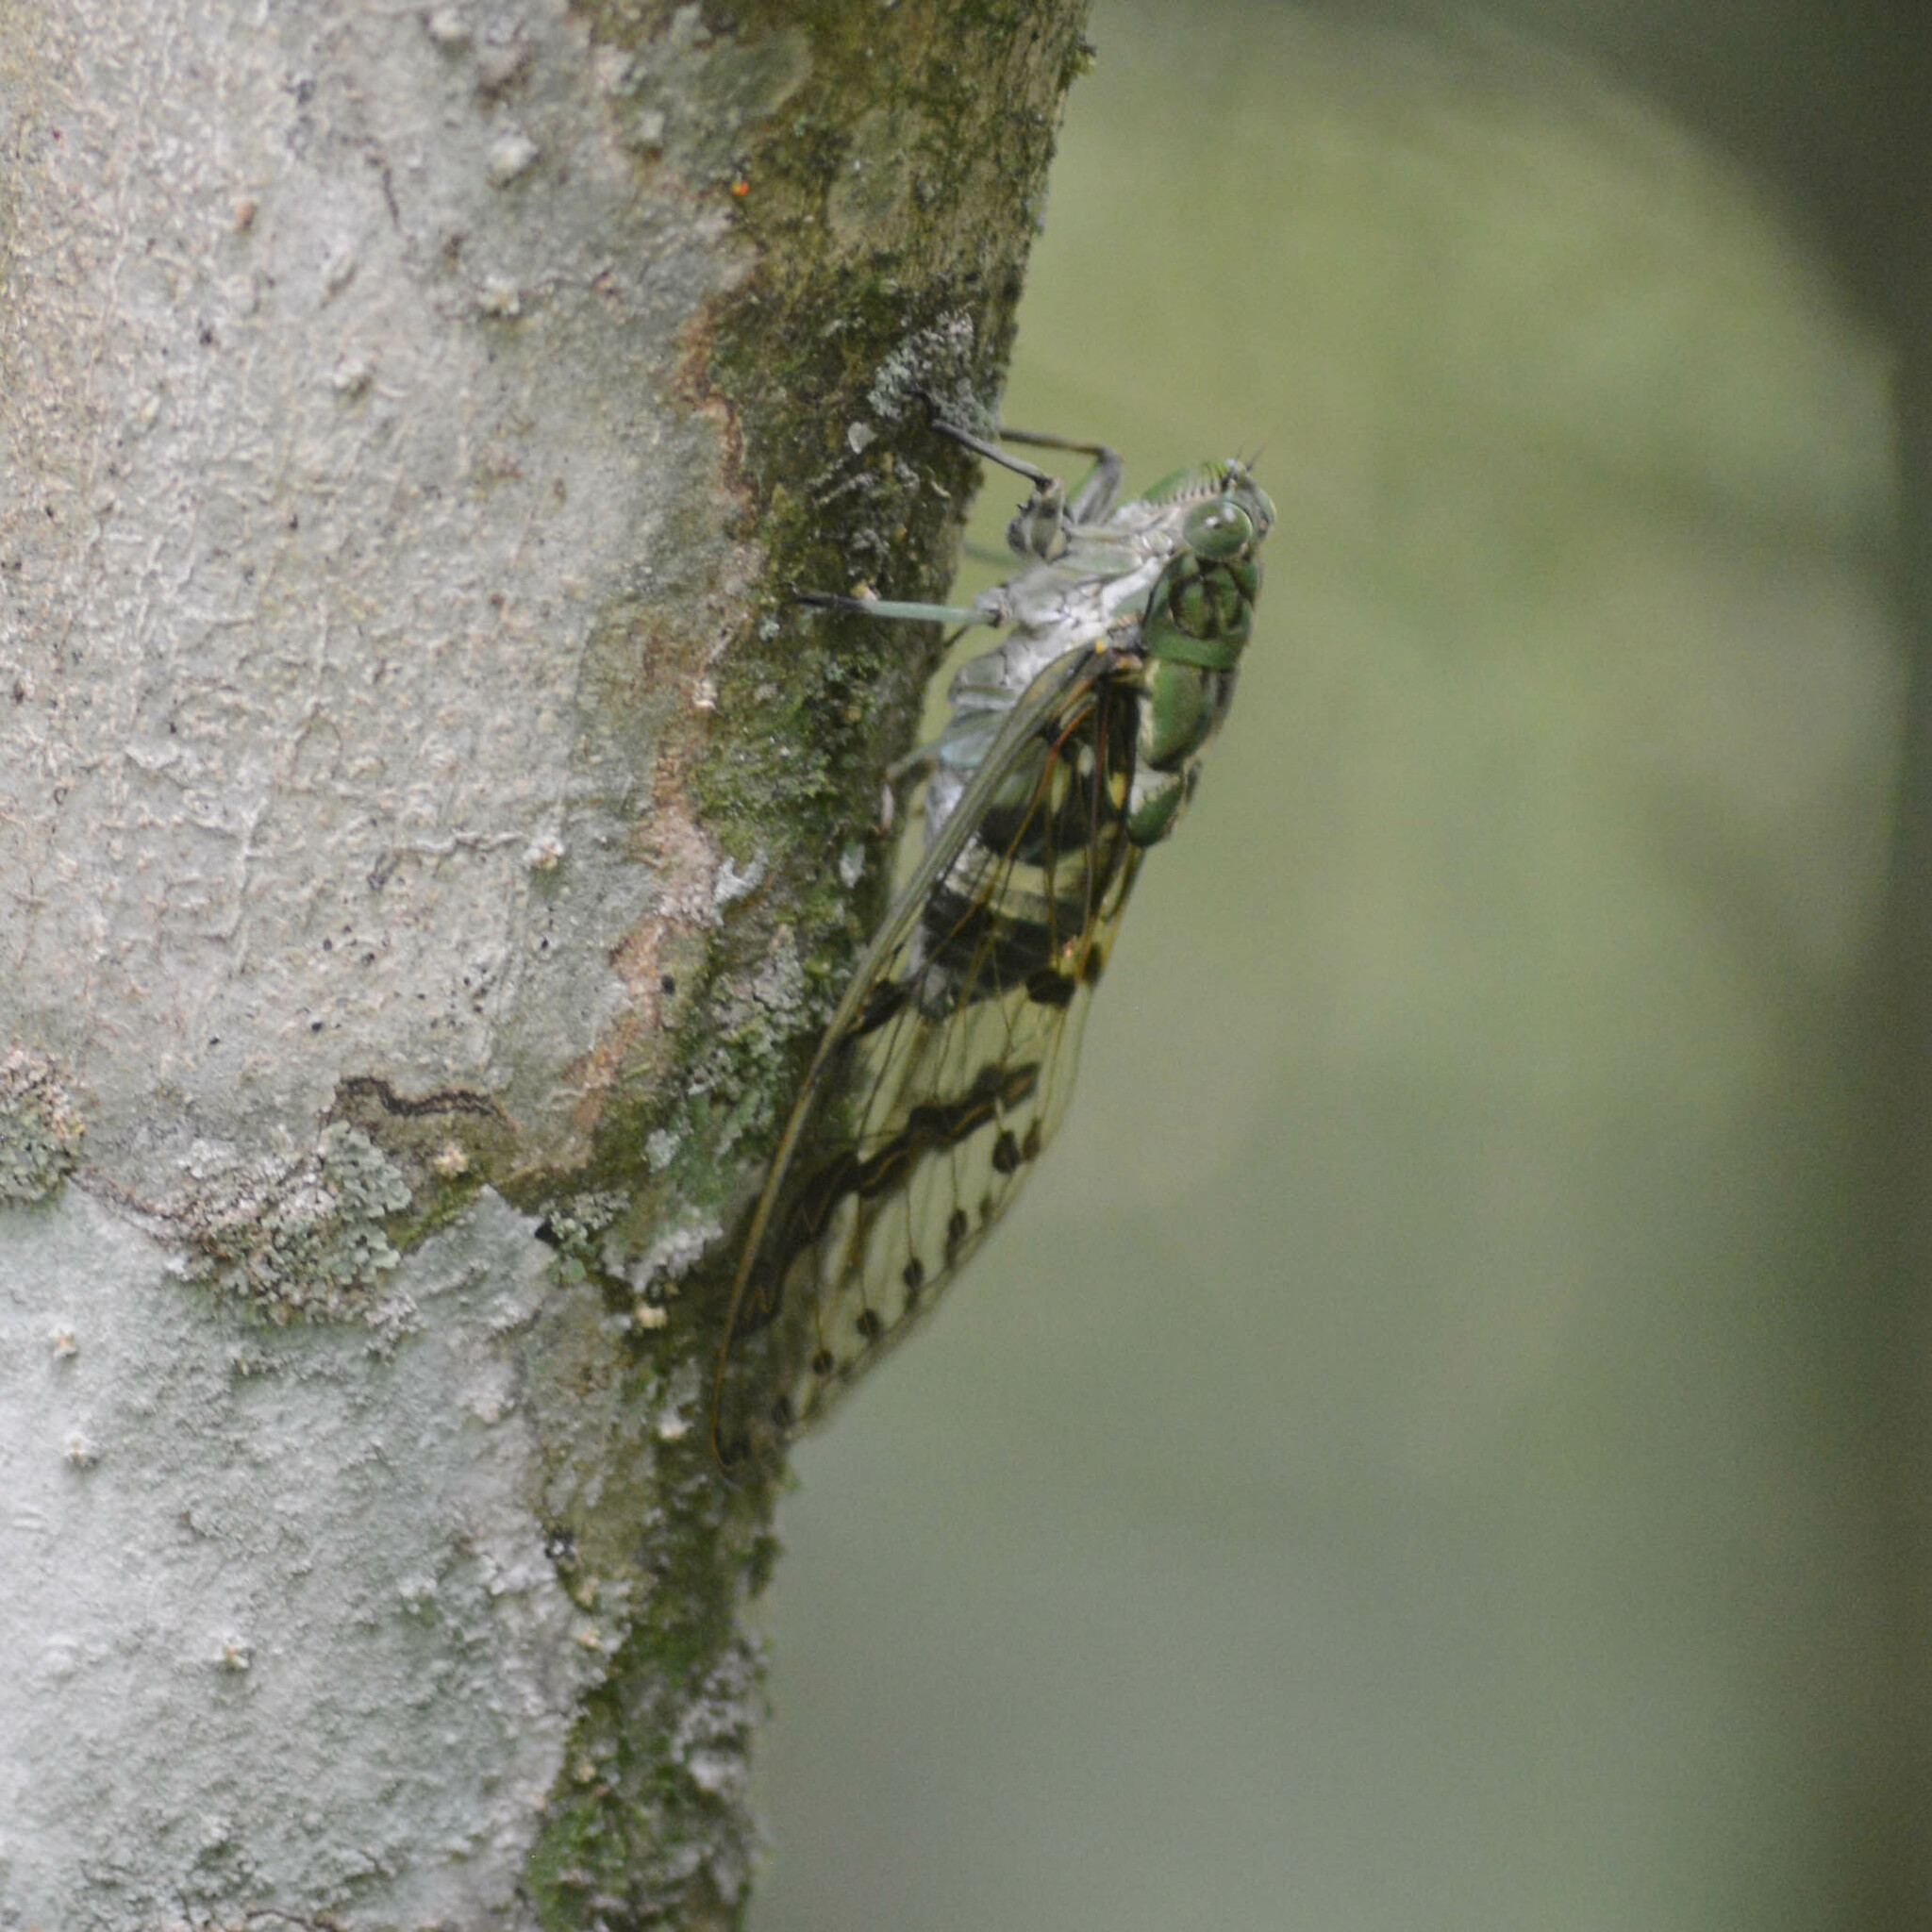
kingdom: Animalia
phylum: Arthropoda
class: Insecta
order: Hemiptera
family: Cicadidae
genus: Zammara
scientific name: Zammara tympanum
